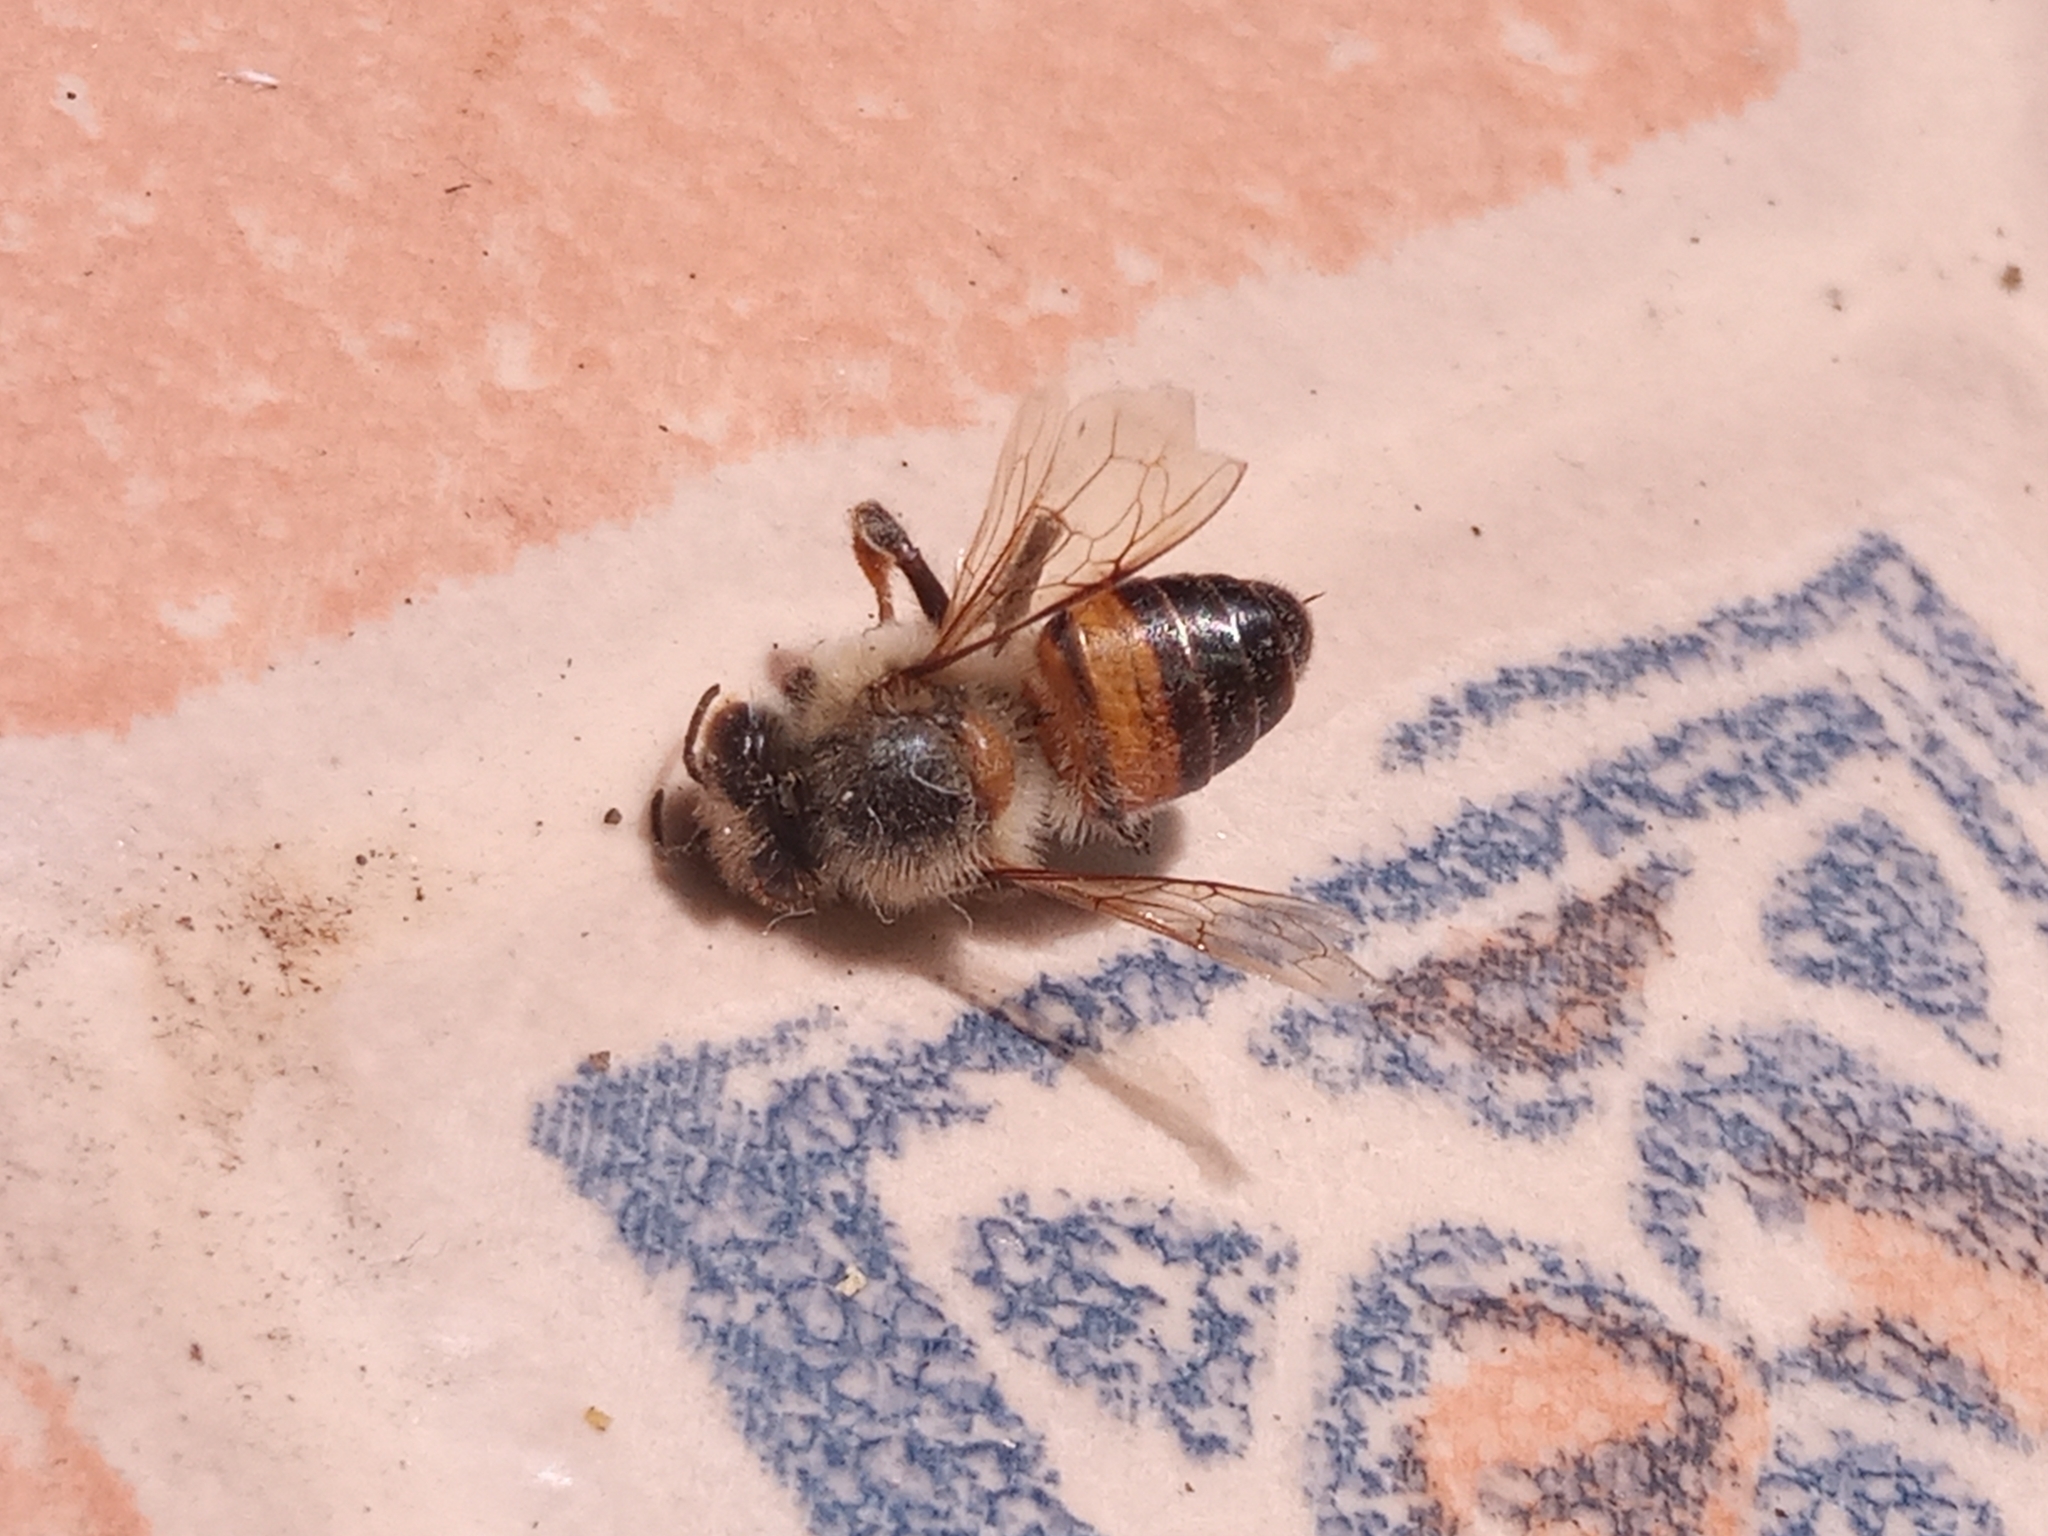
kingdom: Animalia
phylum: Arthropoda
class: Insecta
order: Hymenoptera
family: Apidae
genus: Apis
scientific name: Apis mellifera
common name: Honey bee
